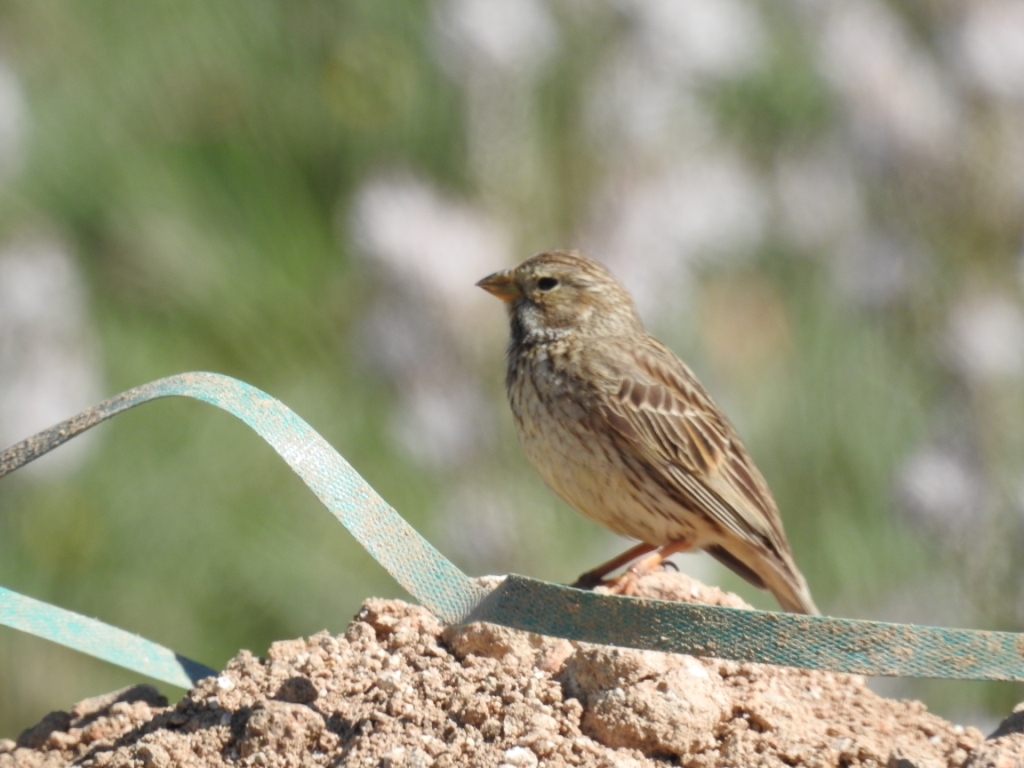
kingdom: Animalia
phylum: Chordata
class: Aves
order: Passeriformes
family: Emberizidae
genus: Emberiza
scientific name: Emberiza calandra
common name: Corn bunting
